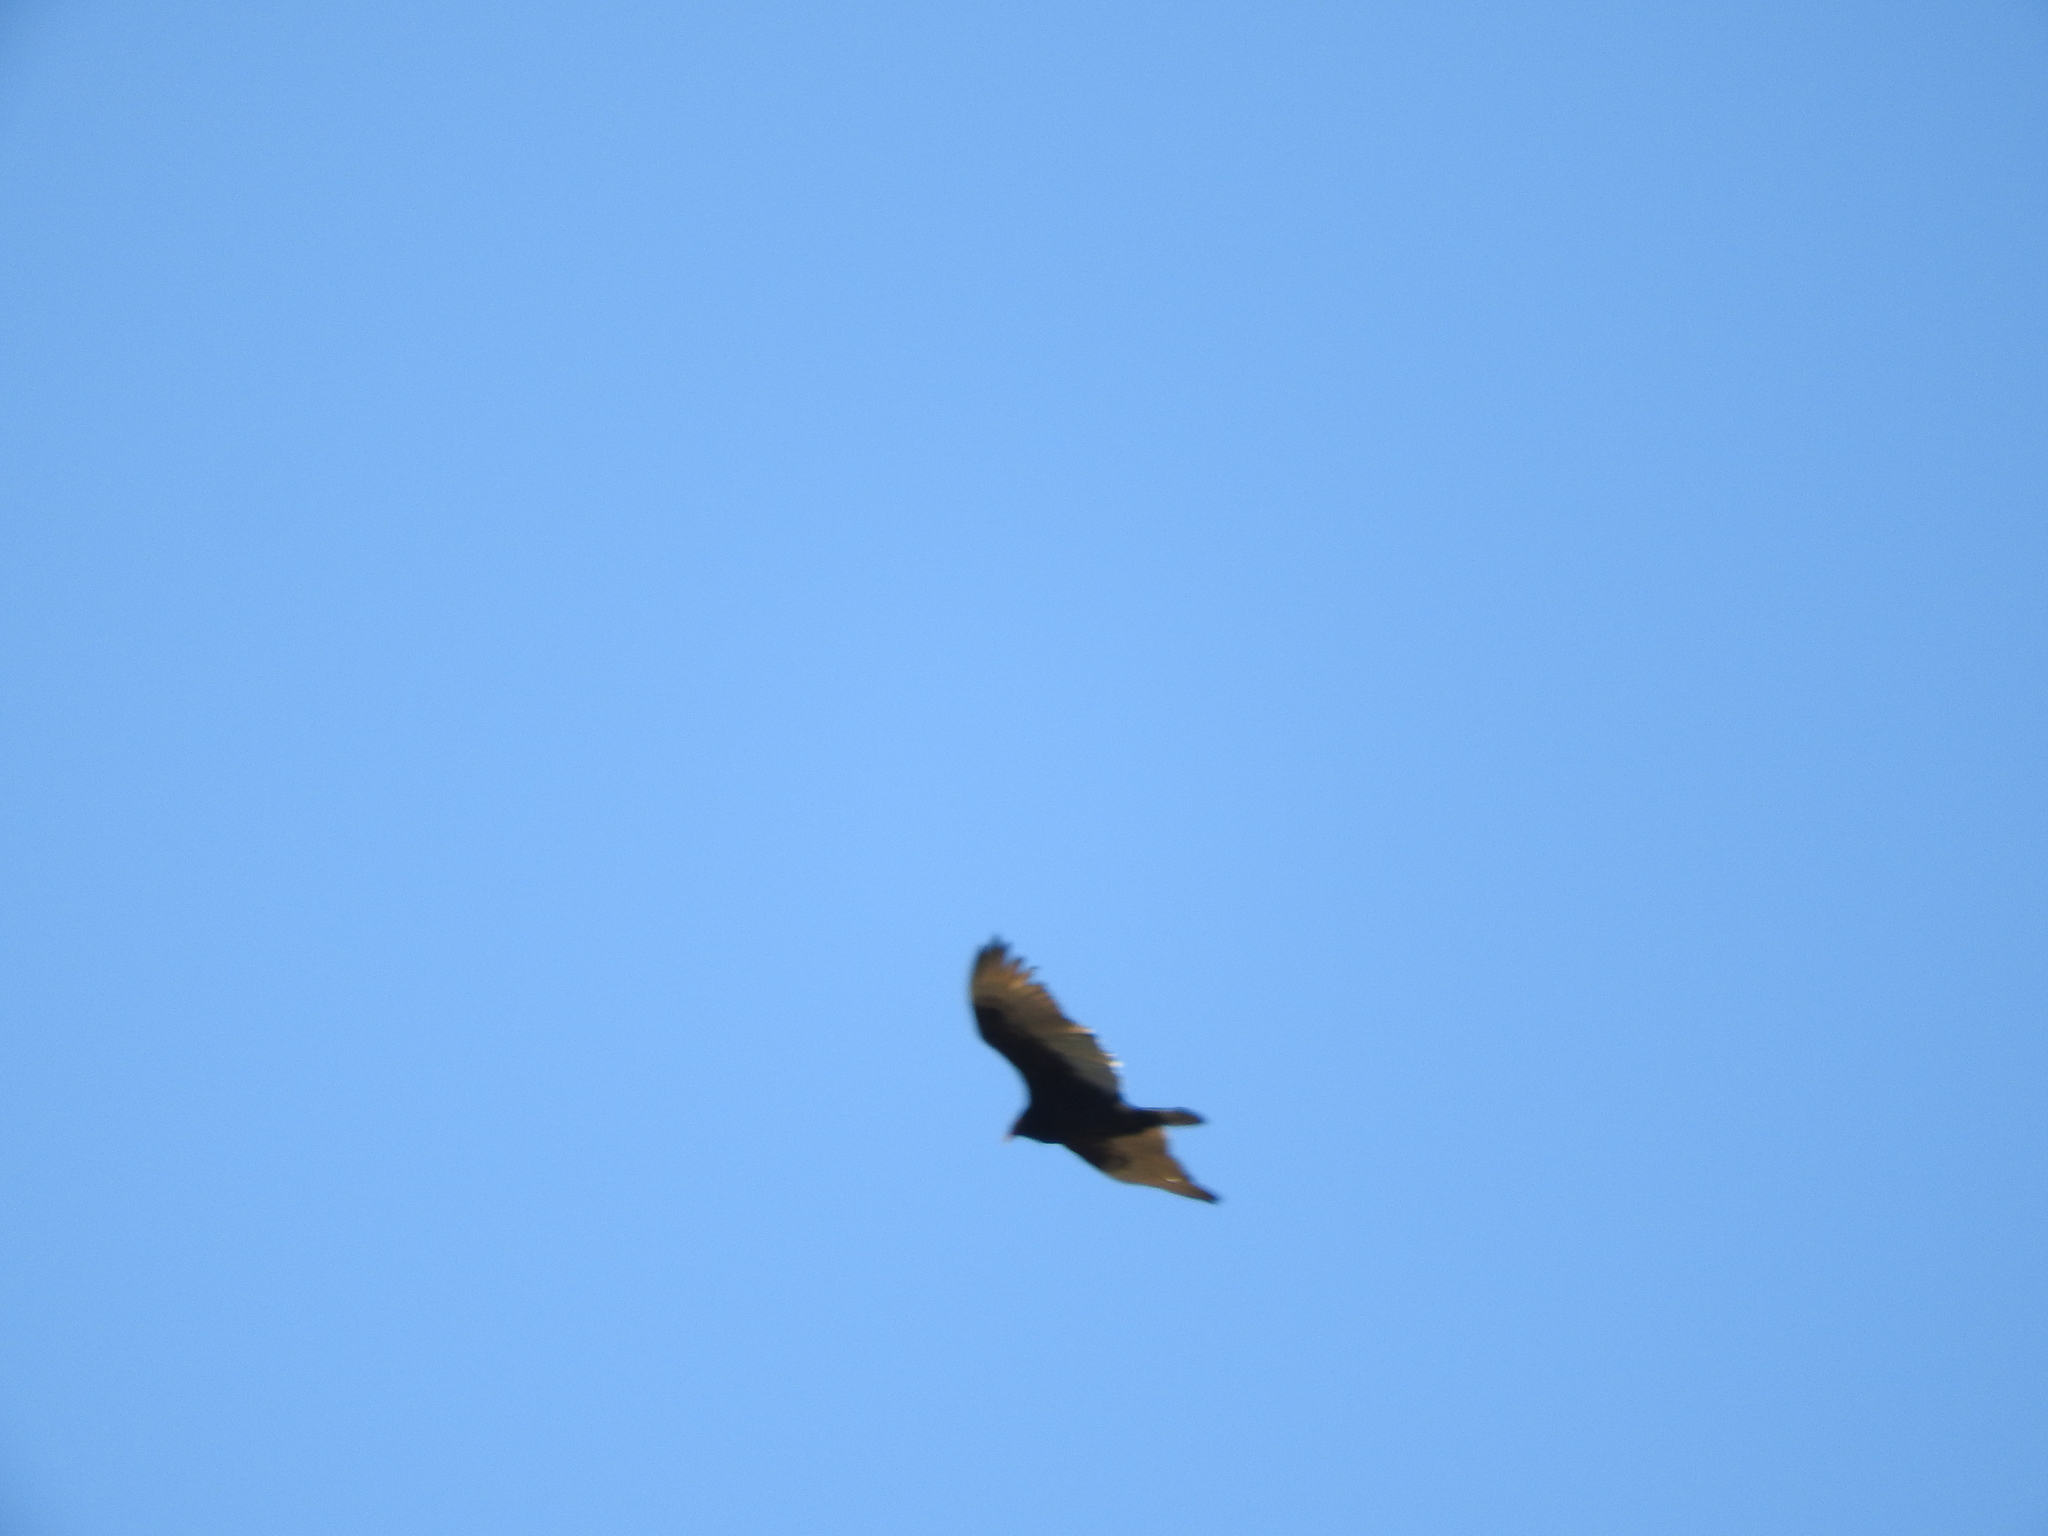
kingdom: Animalia
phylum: Chordata
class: Aves
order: Accipitriformes
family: Cathartidae
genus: Cathartes
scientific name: Cathartes aura
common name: Turkey vulture
